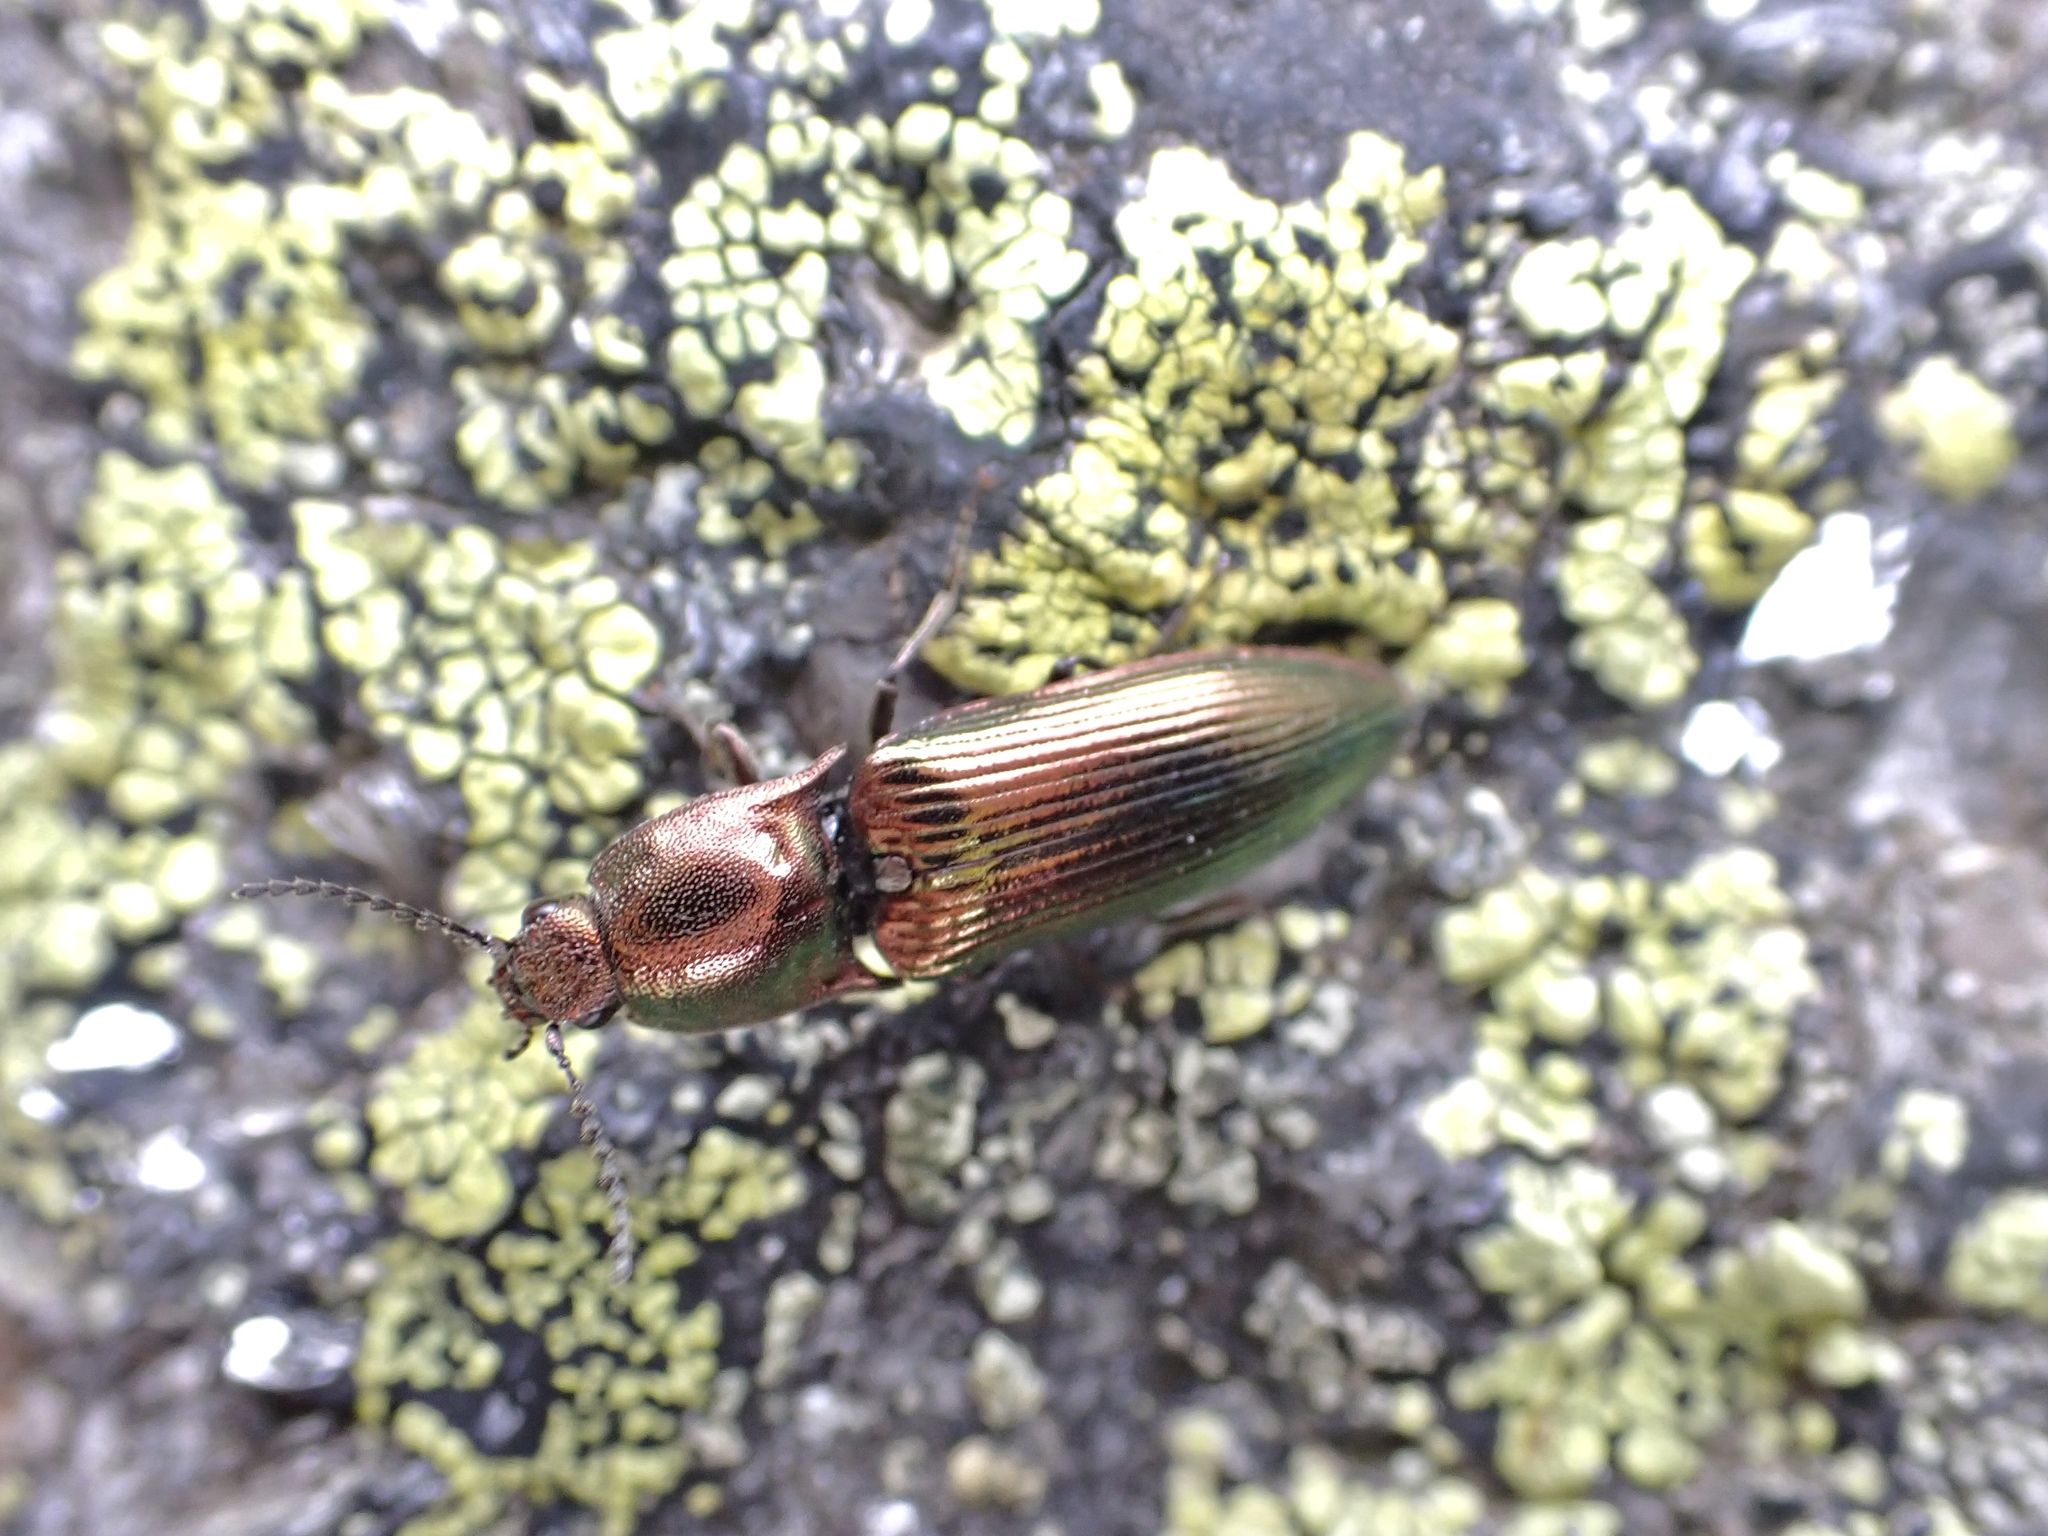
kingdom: Animalia
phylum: Arthropoda
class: Insecta
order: Coleoptera
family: Elateridae
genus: Nitidolimonius
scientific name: Nitidolimonius resplendens
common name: Resplendent click beetle
